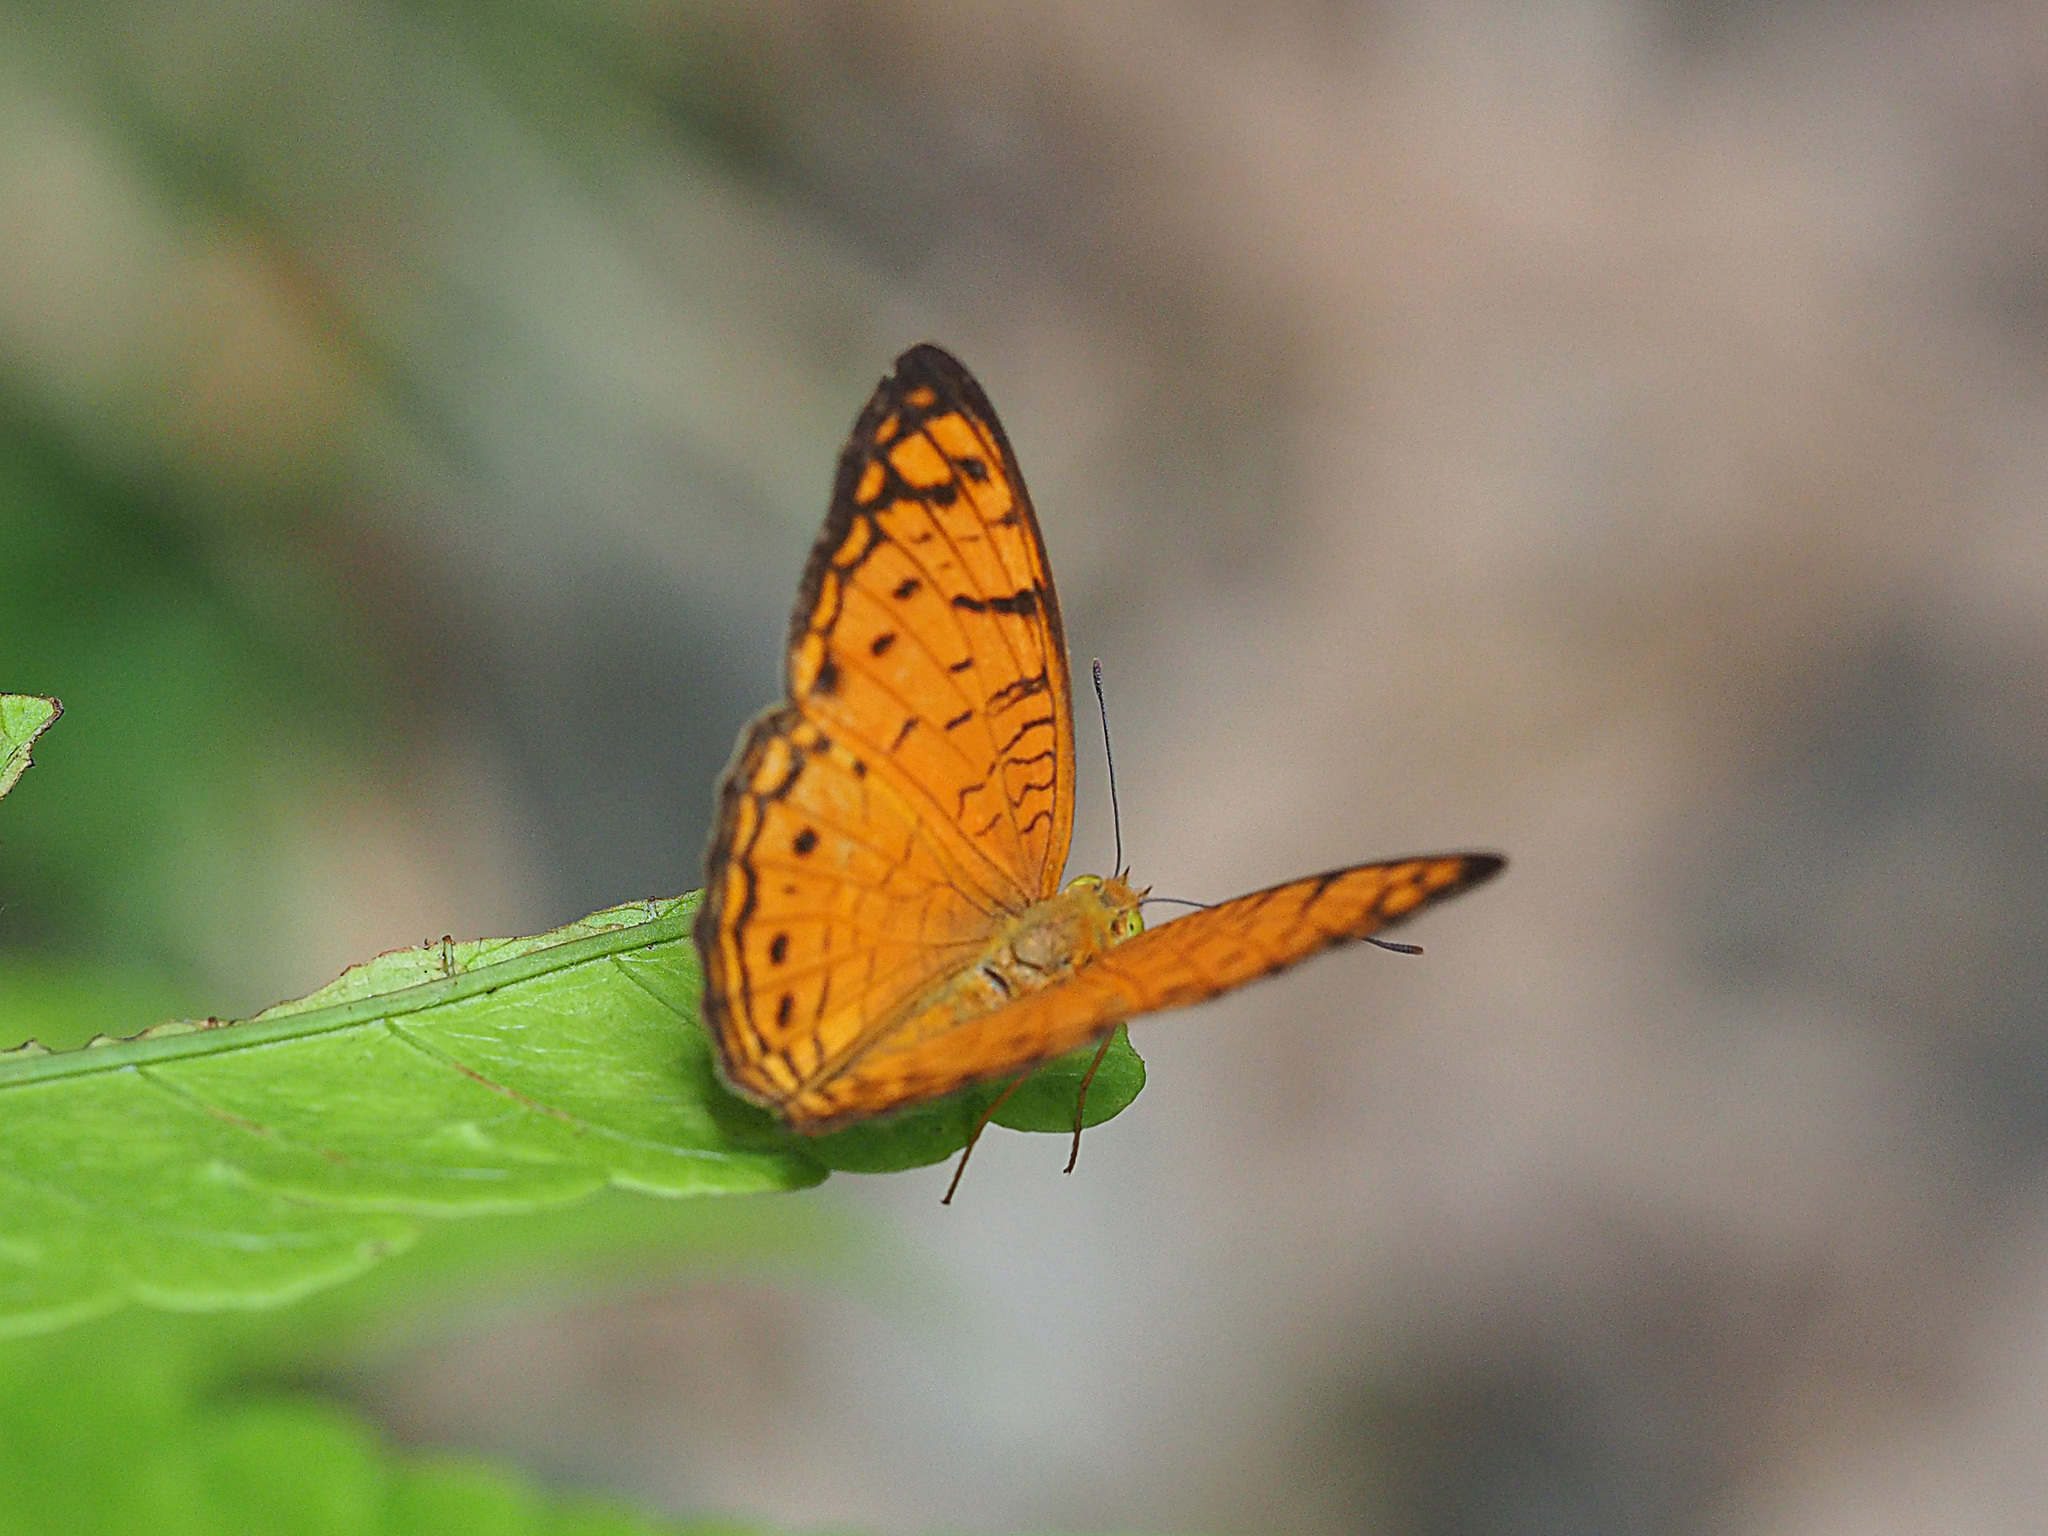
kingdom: Animalia
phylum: Arthropoda
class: Insecta
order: Lepidoptera
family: Nymphalidae
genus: Phalanta
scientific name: Phalanta alcippe
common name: Small leopard
